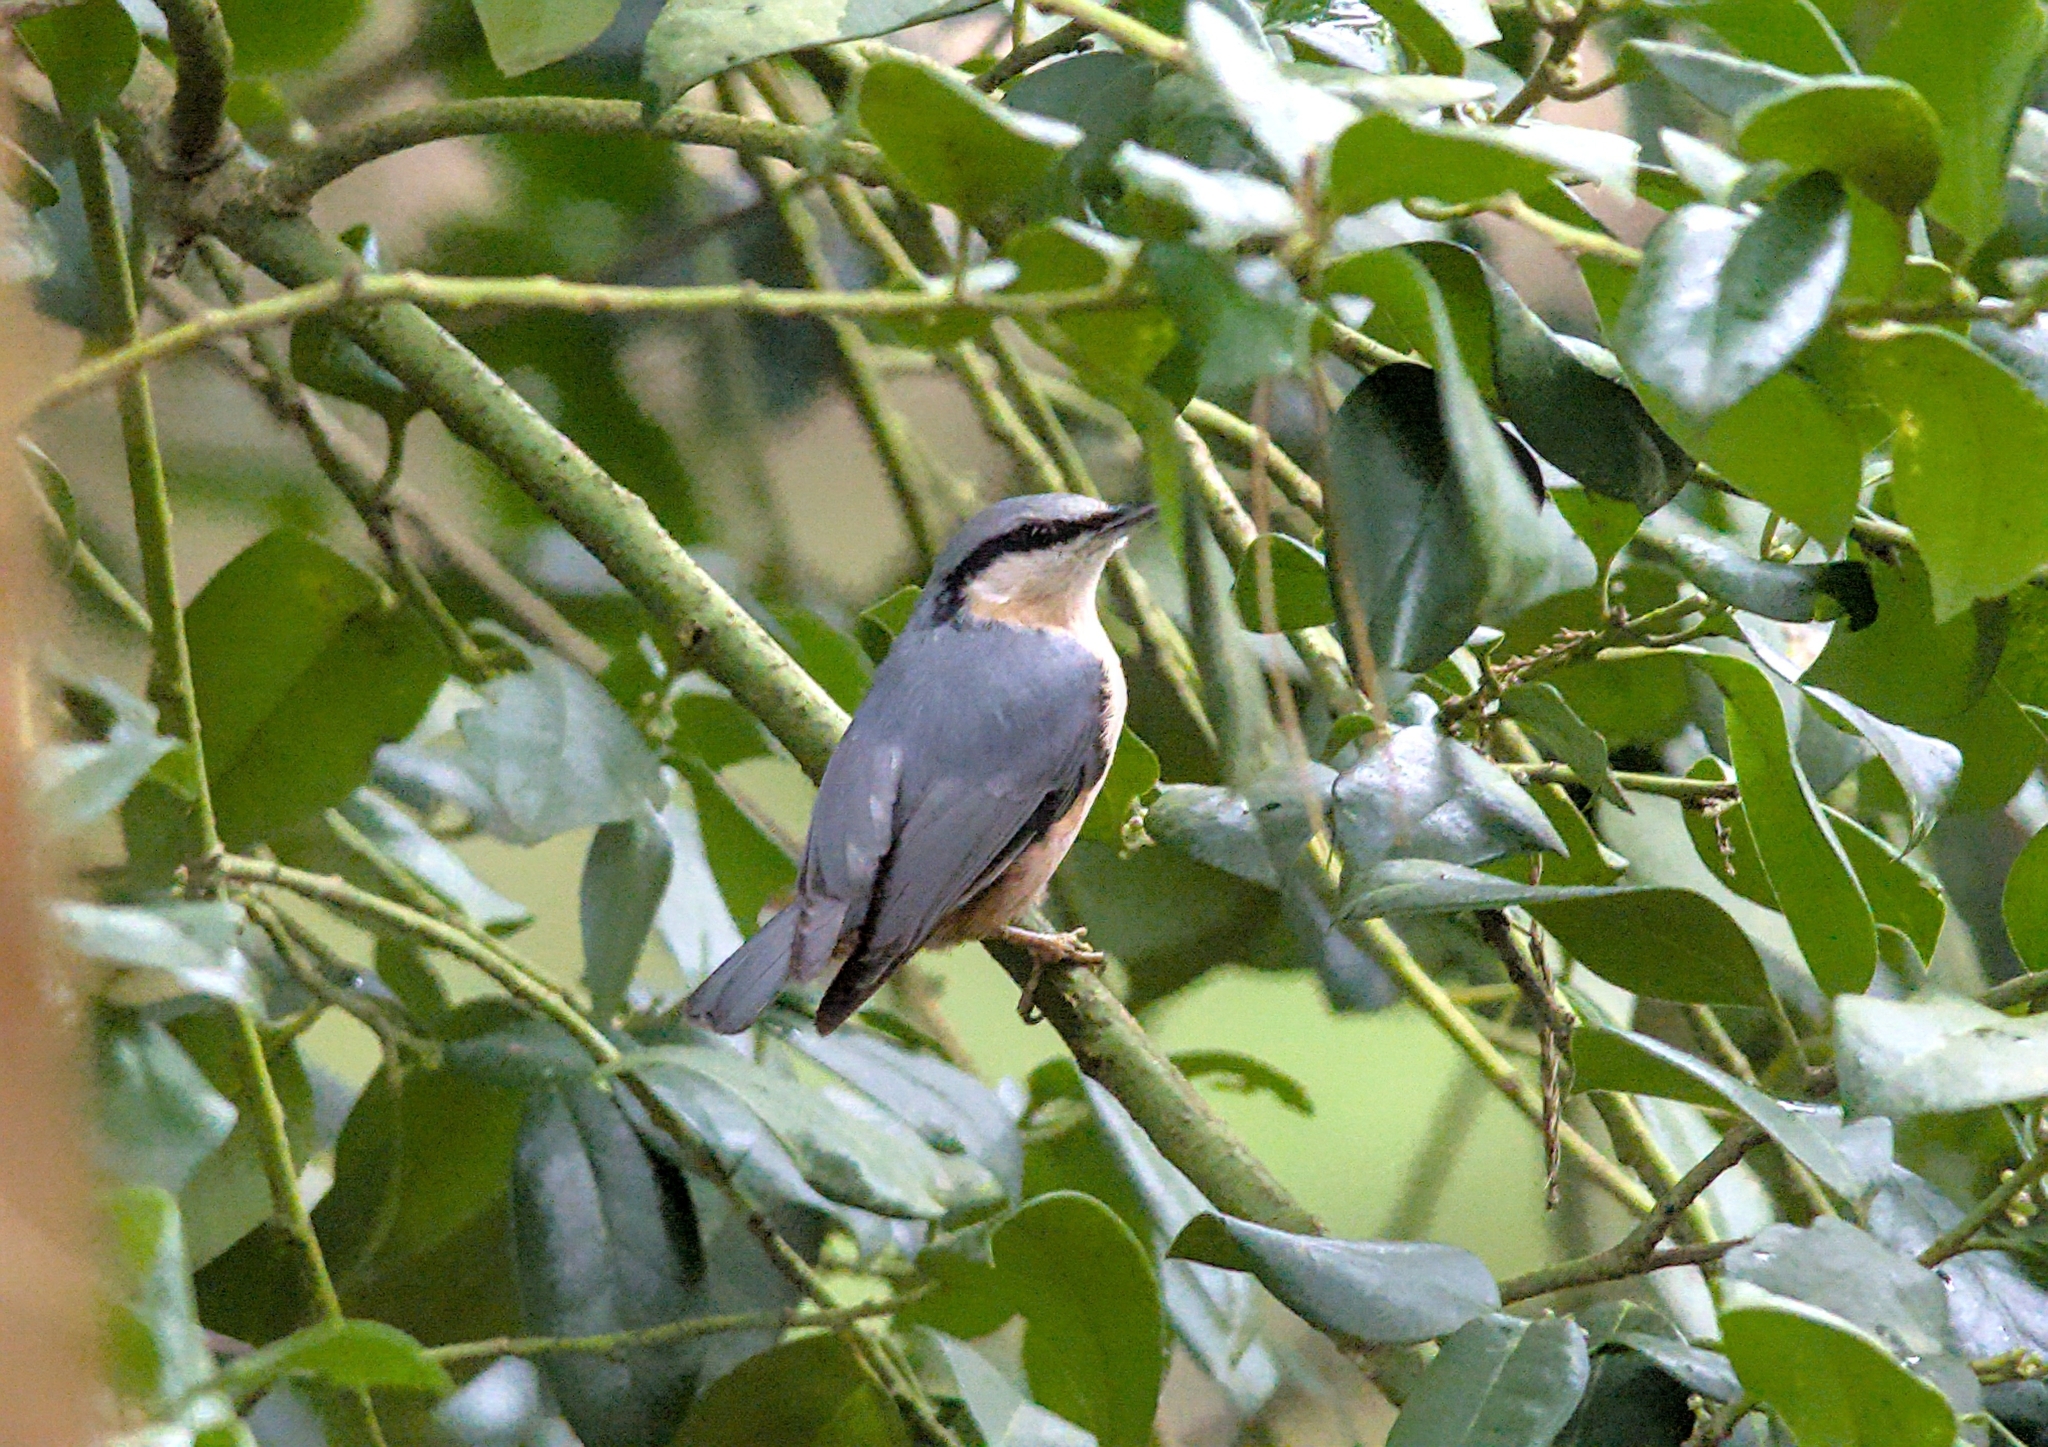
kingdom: Animalia
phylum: Chordata
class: Aves
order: Passeriformes
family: Sittidae
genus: Sitta
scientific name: Sitta europaea
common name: Eurasian nuthatch
